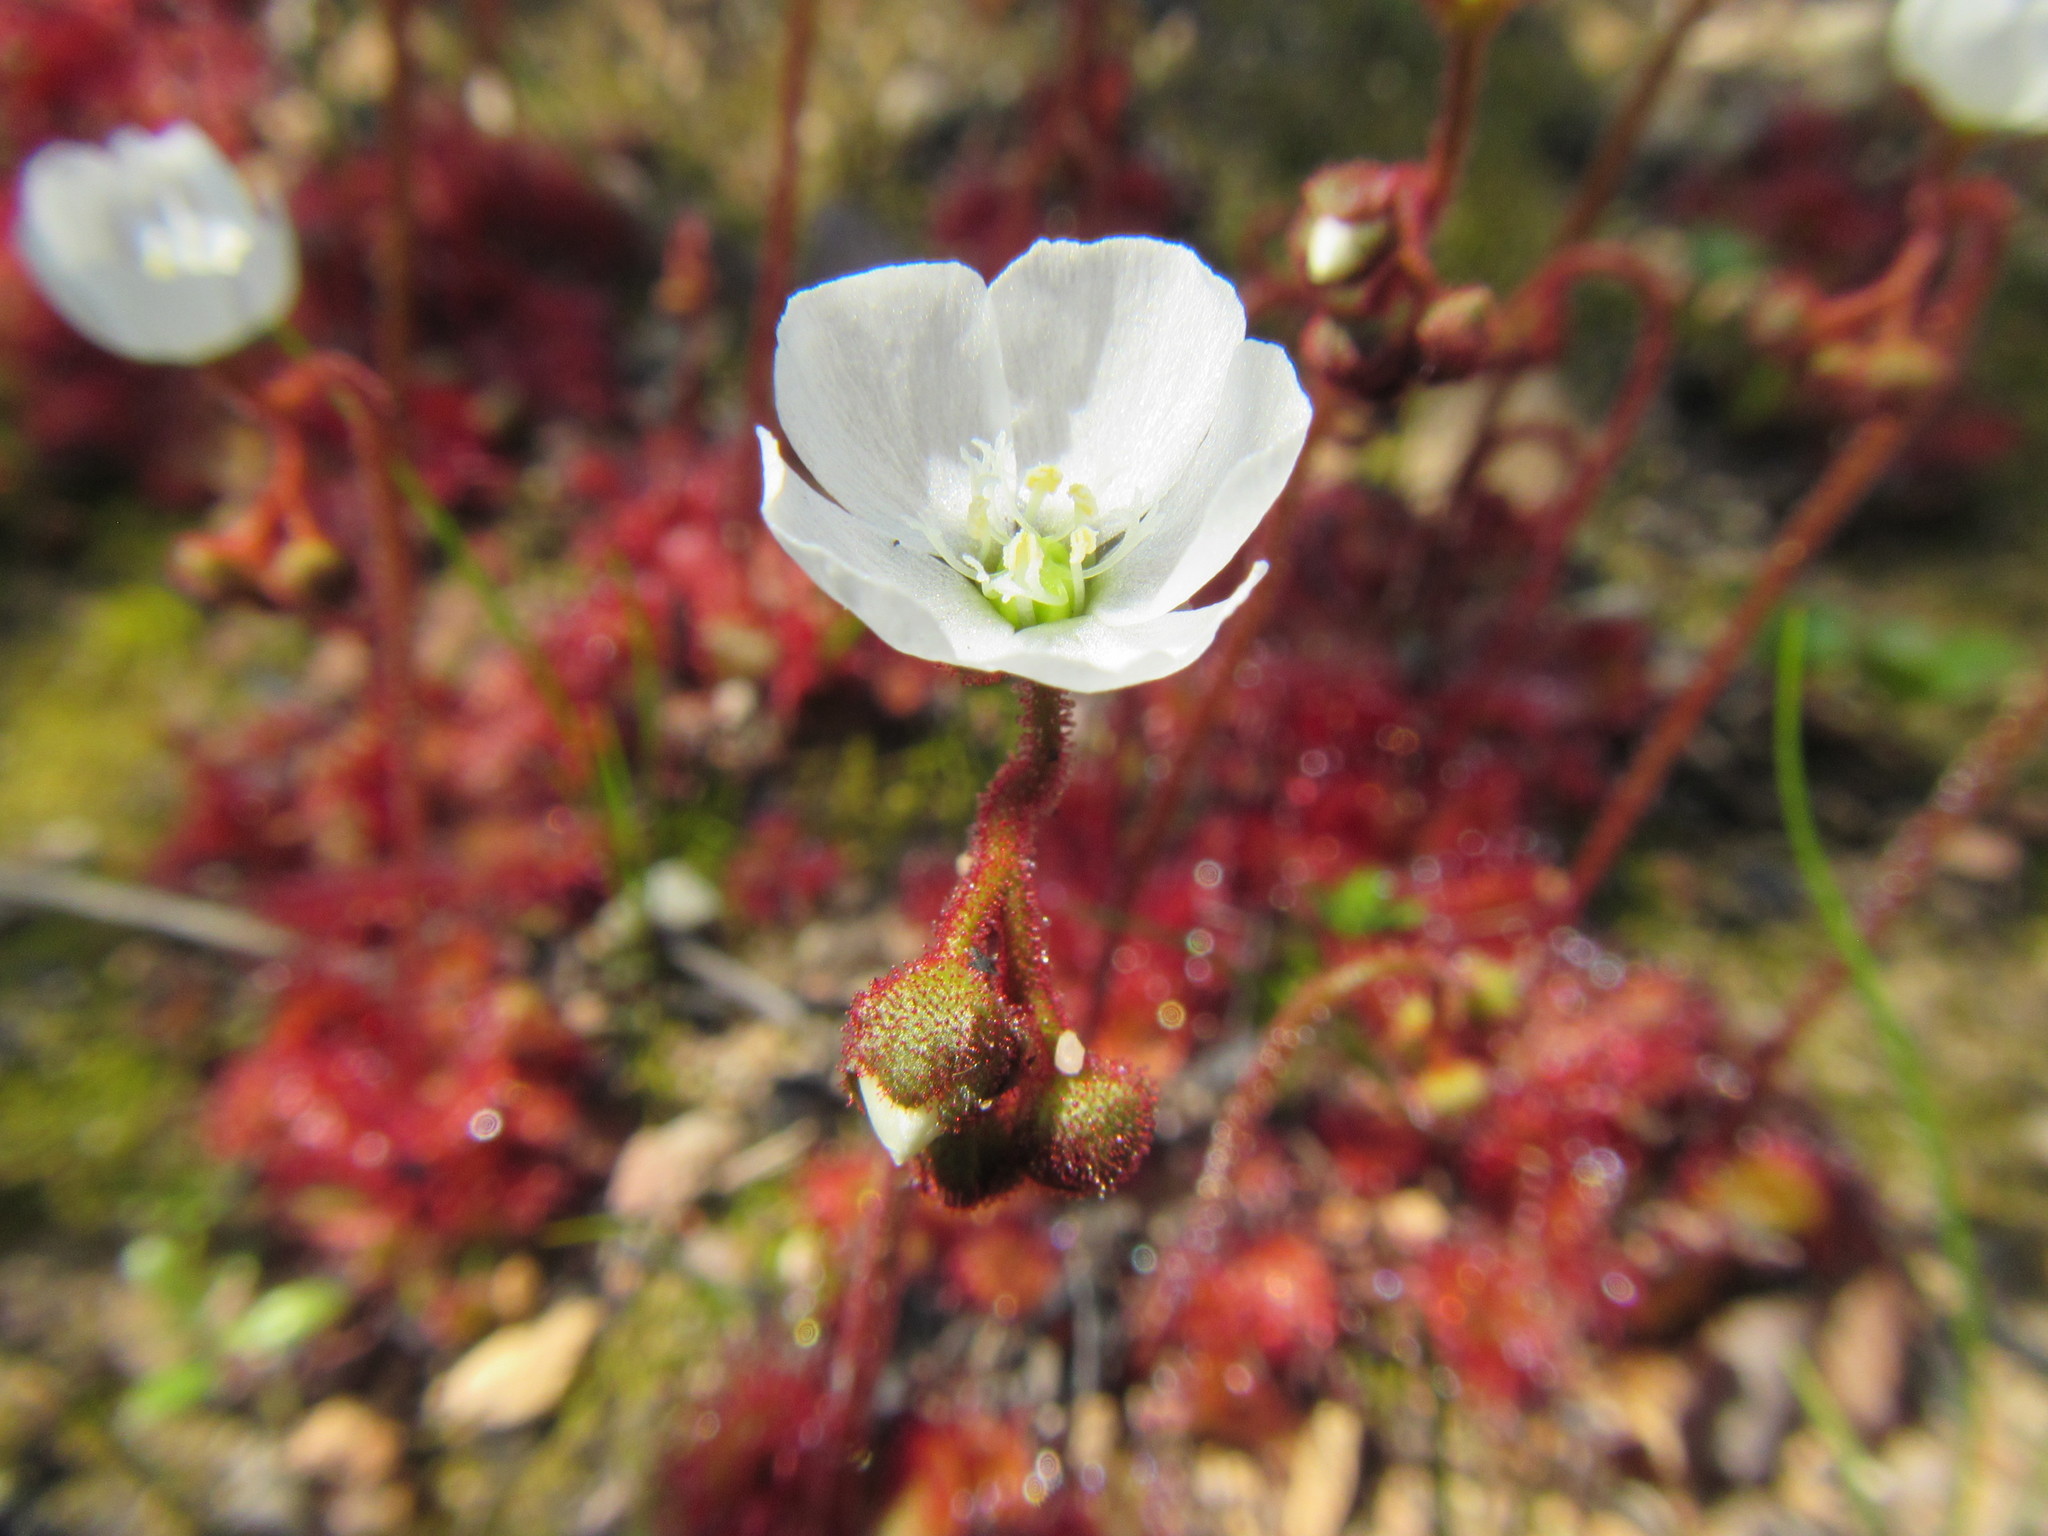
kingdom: Plantae
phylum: Tracheophyta
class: Magnoliopsida
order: Caryophyllales
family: Droseraceae
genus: Drosera
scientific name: Drosera trinervia
